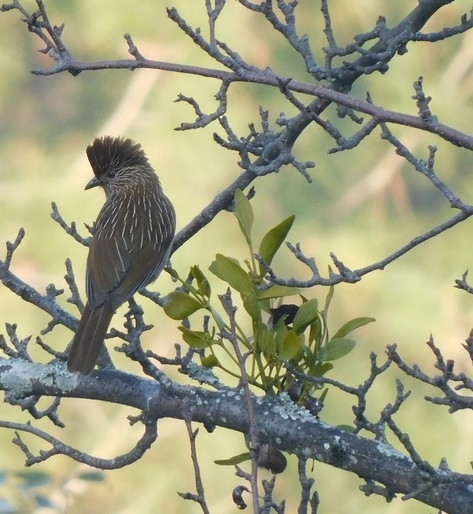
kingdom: Animalia
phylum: Chordata
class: Aves
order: Passeriformes
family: Leiothrichidae
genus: Garrulax
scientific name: Garrulax striatus
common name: Striated laughingthrush
